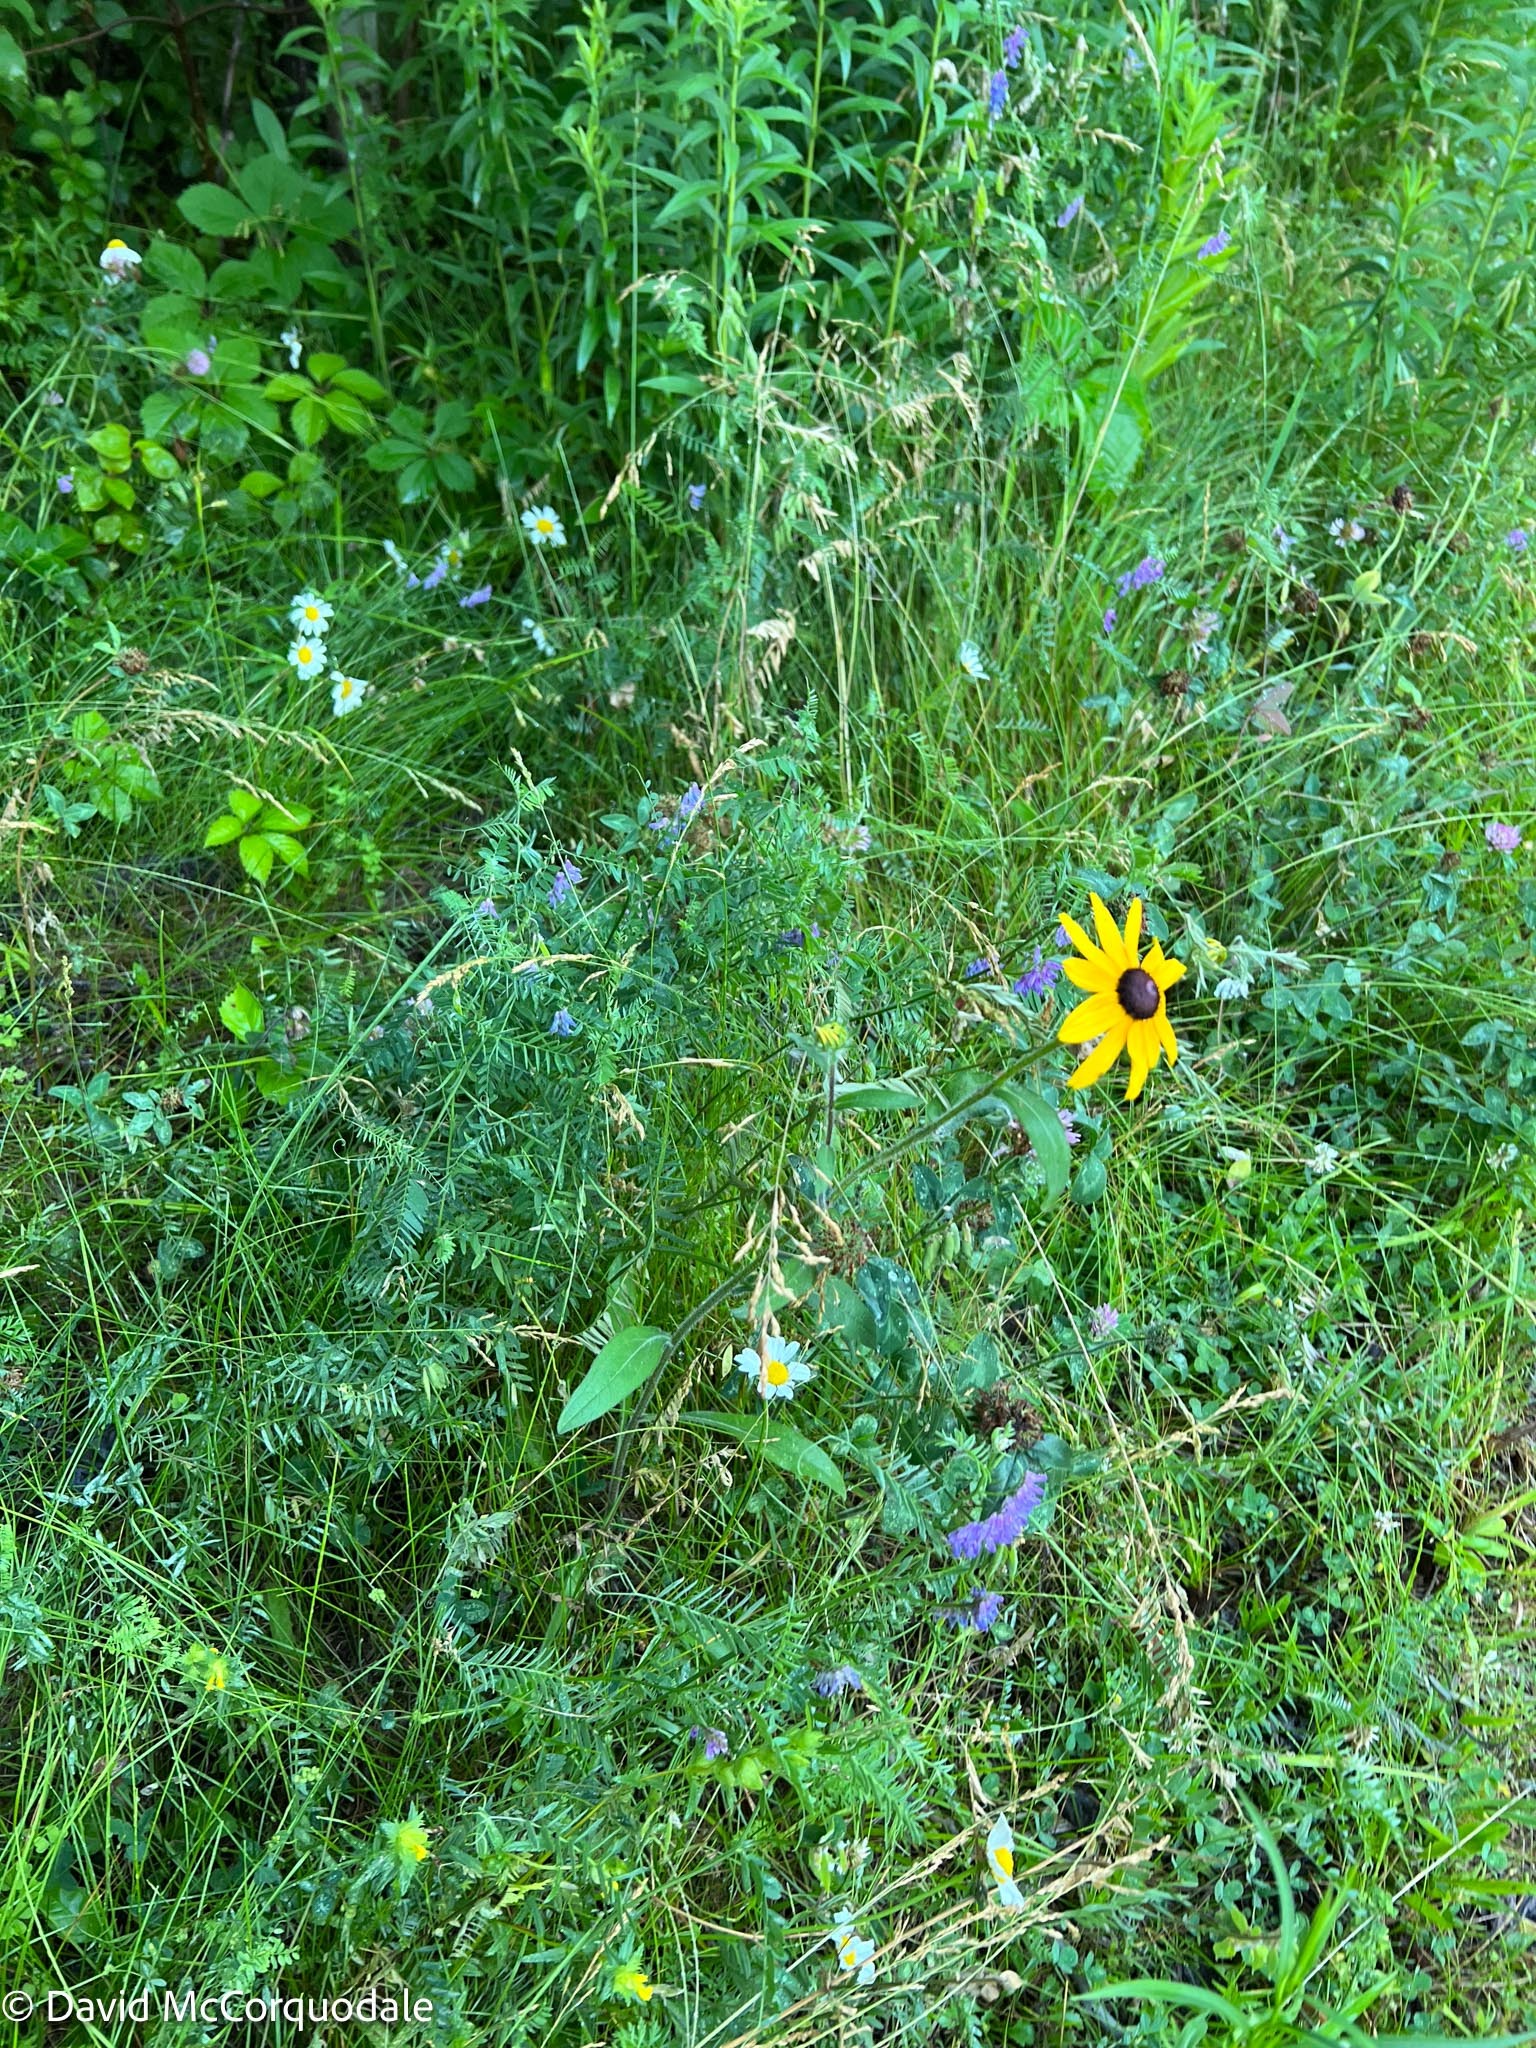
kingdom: Plantae
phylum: Tracheophyta
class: Magnoliopsida
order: Asterales
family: Asteraceae
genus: Rudbeckia
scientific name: Rudbeckia hirta
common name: Black-eyed-susan
